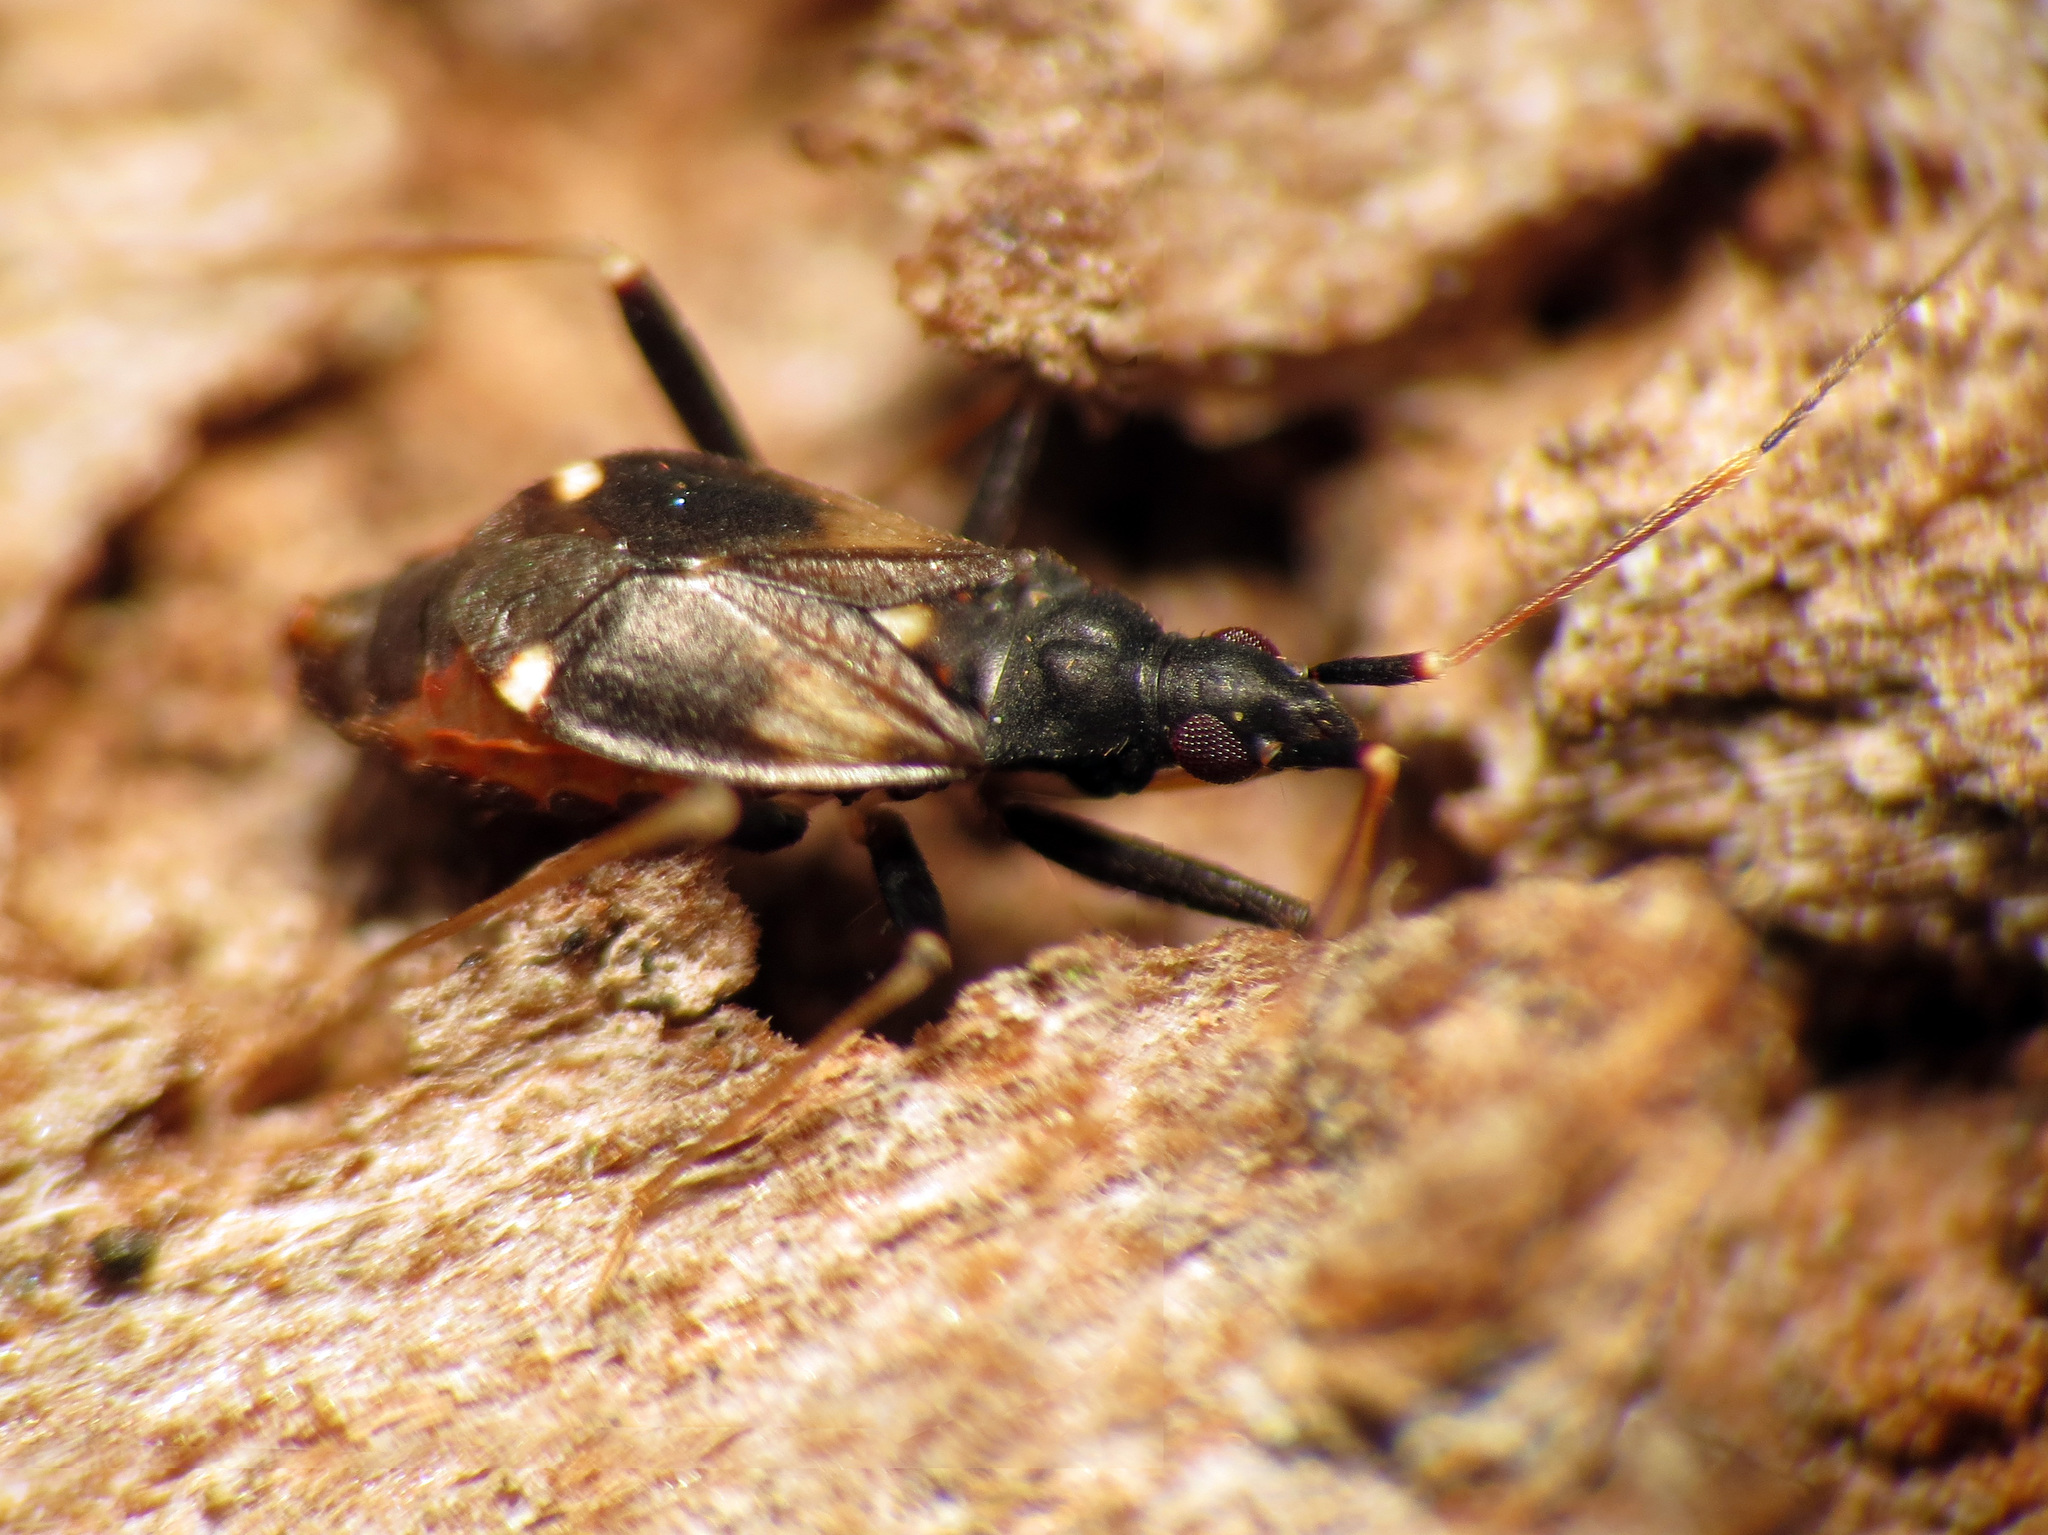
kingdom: Animalia
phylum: Arthropoda
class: Insecta
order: Hemiptera
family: Miridae
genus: Fulvius
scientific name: Fulvius slateri
